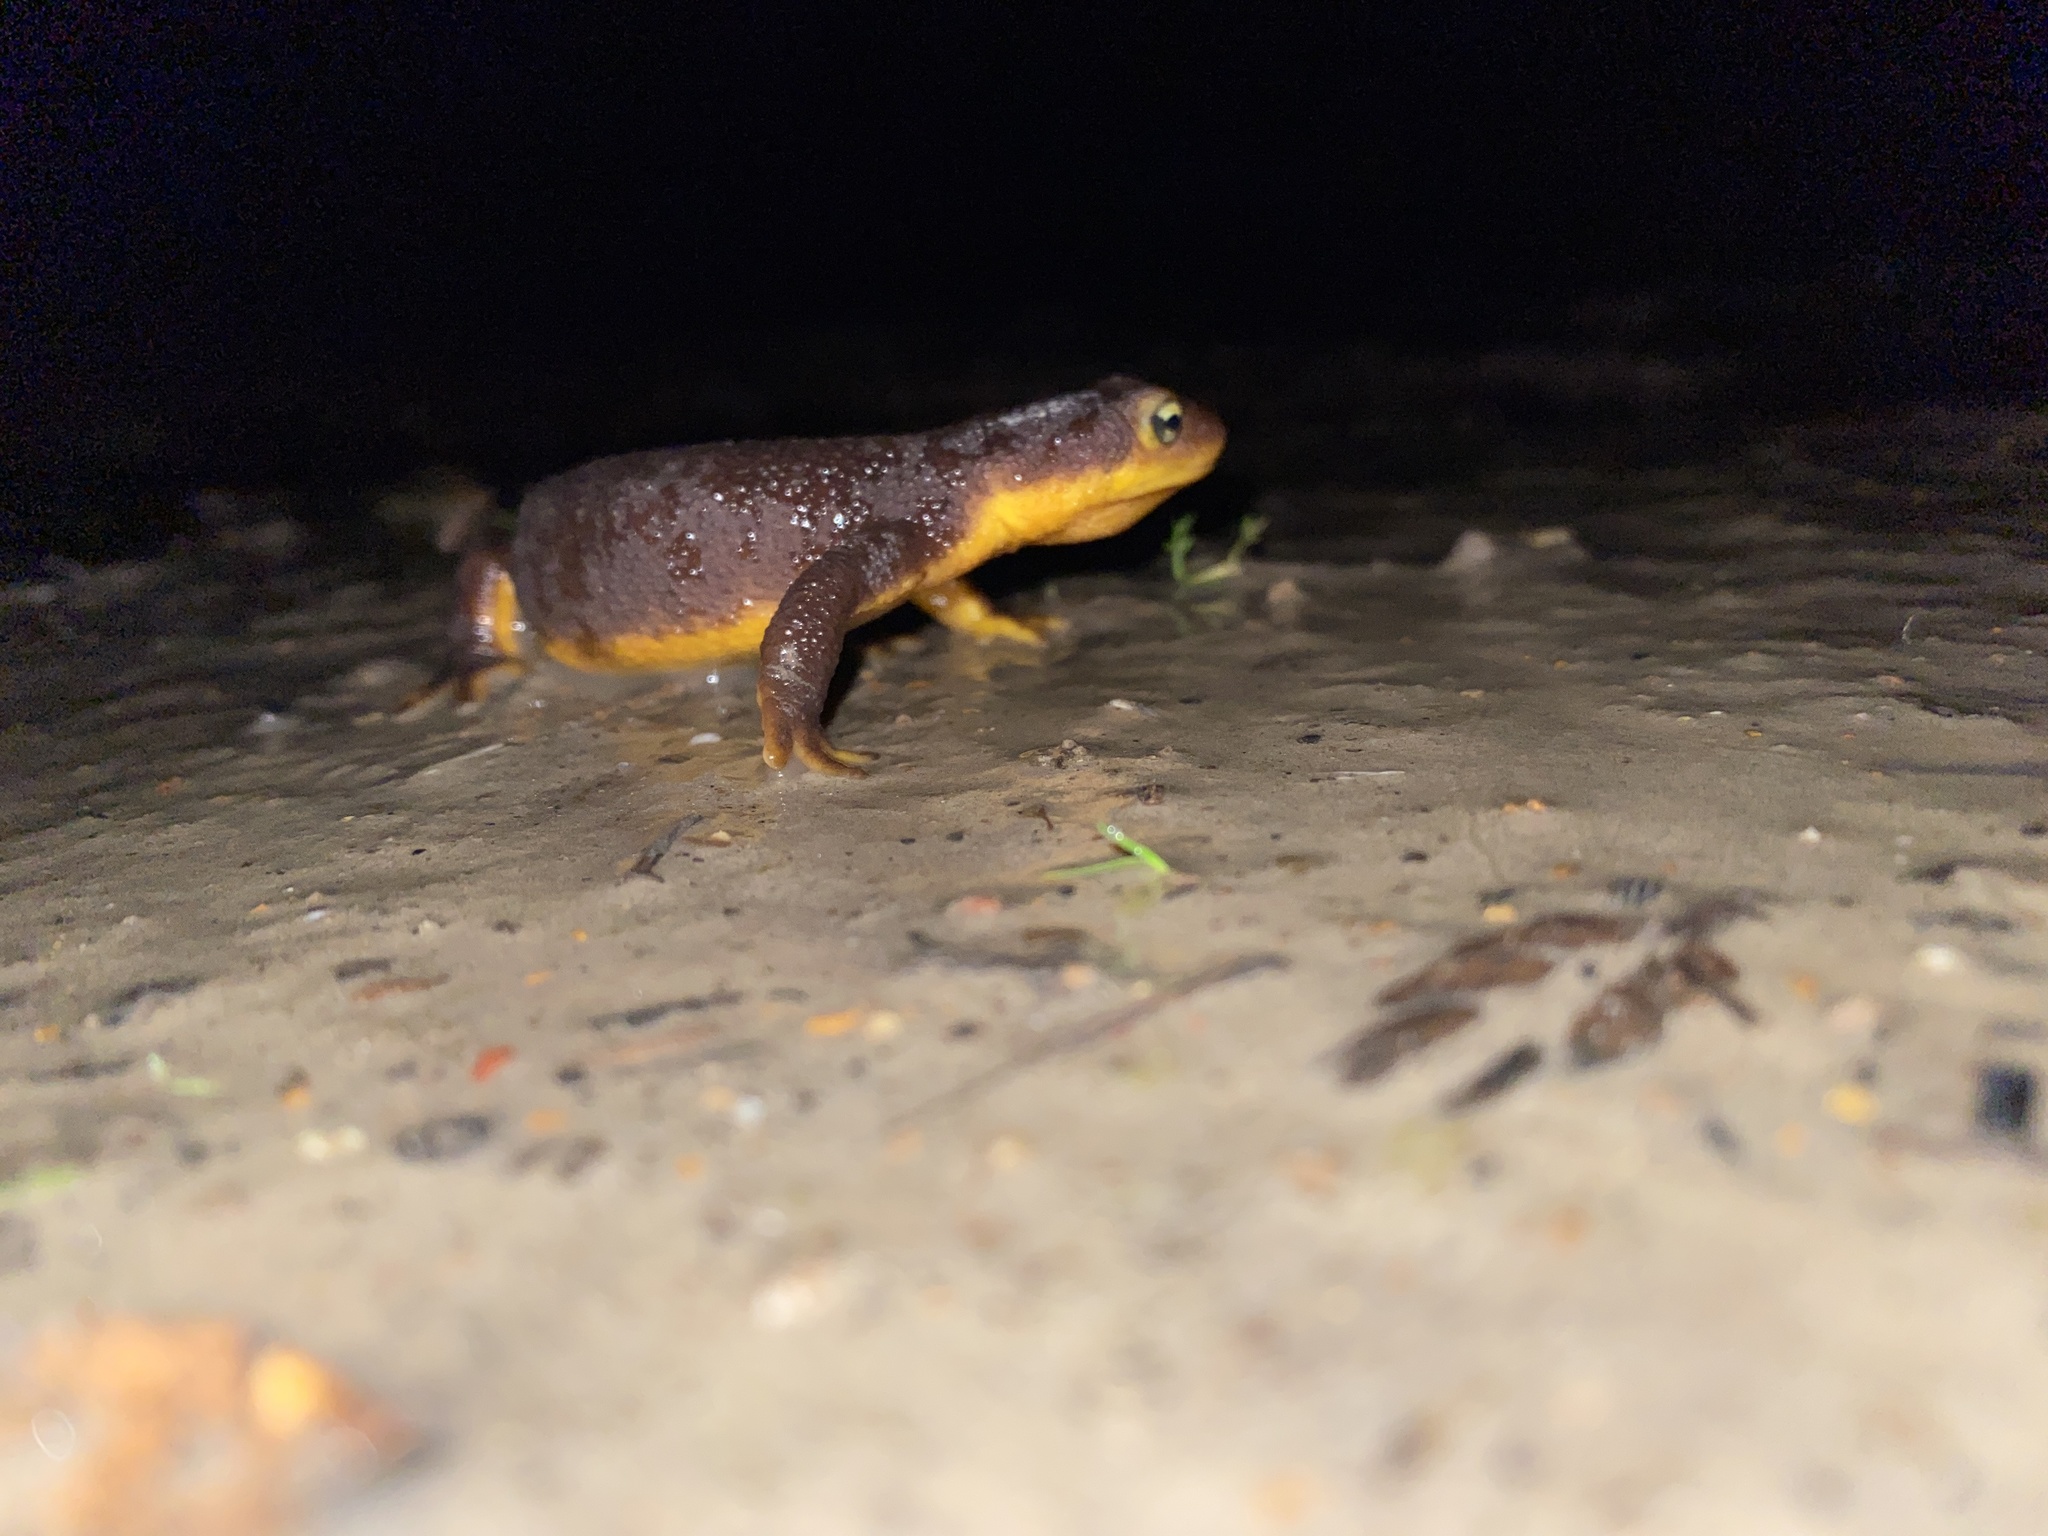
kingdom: Animalia
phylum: Chordata
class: Amphibia
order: Caudata
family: Salamandridae
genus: Taricha
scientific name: Taricha torosa
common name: California newt
